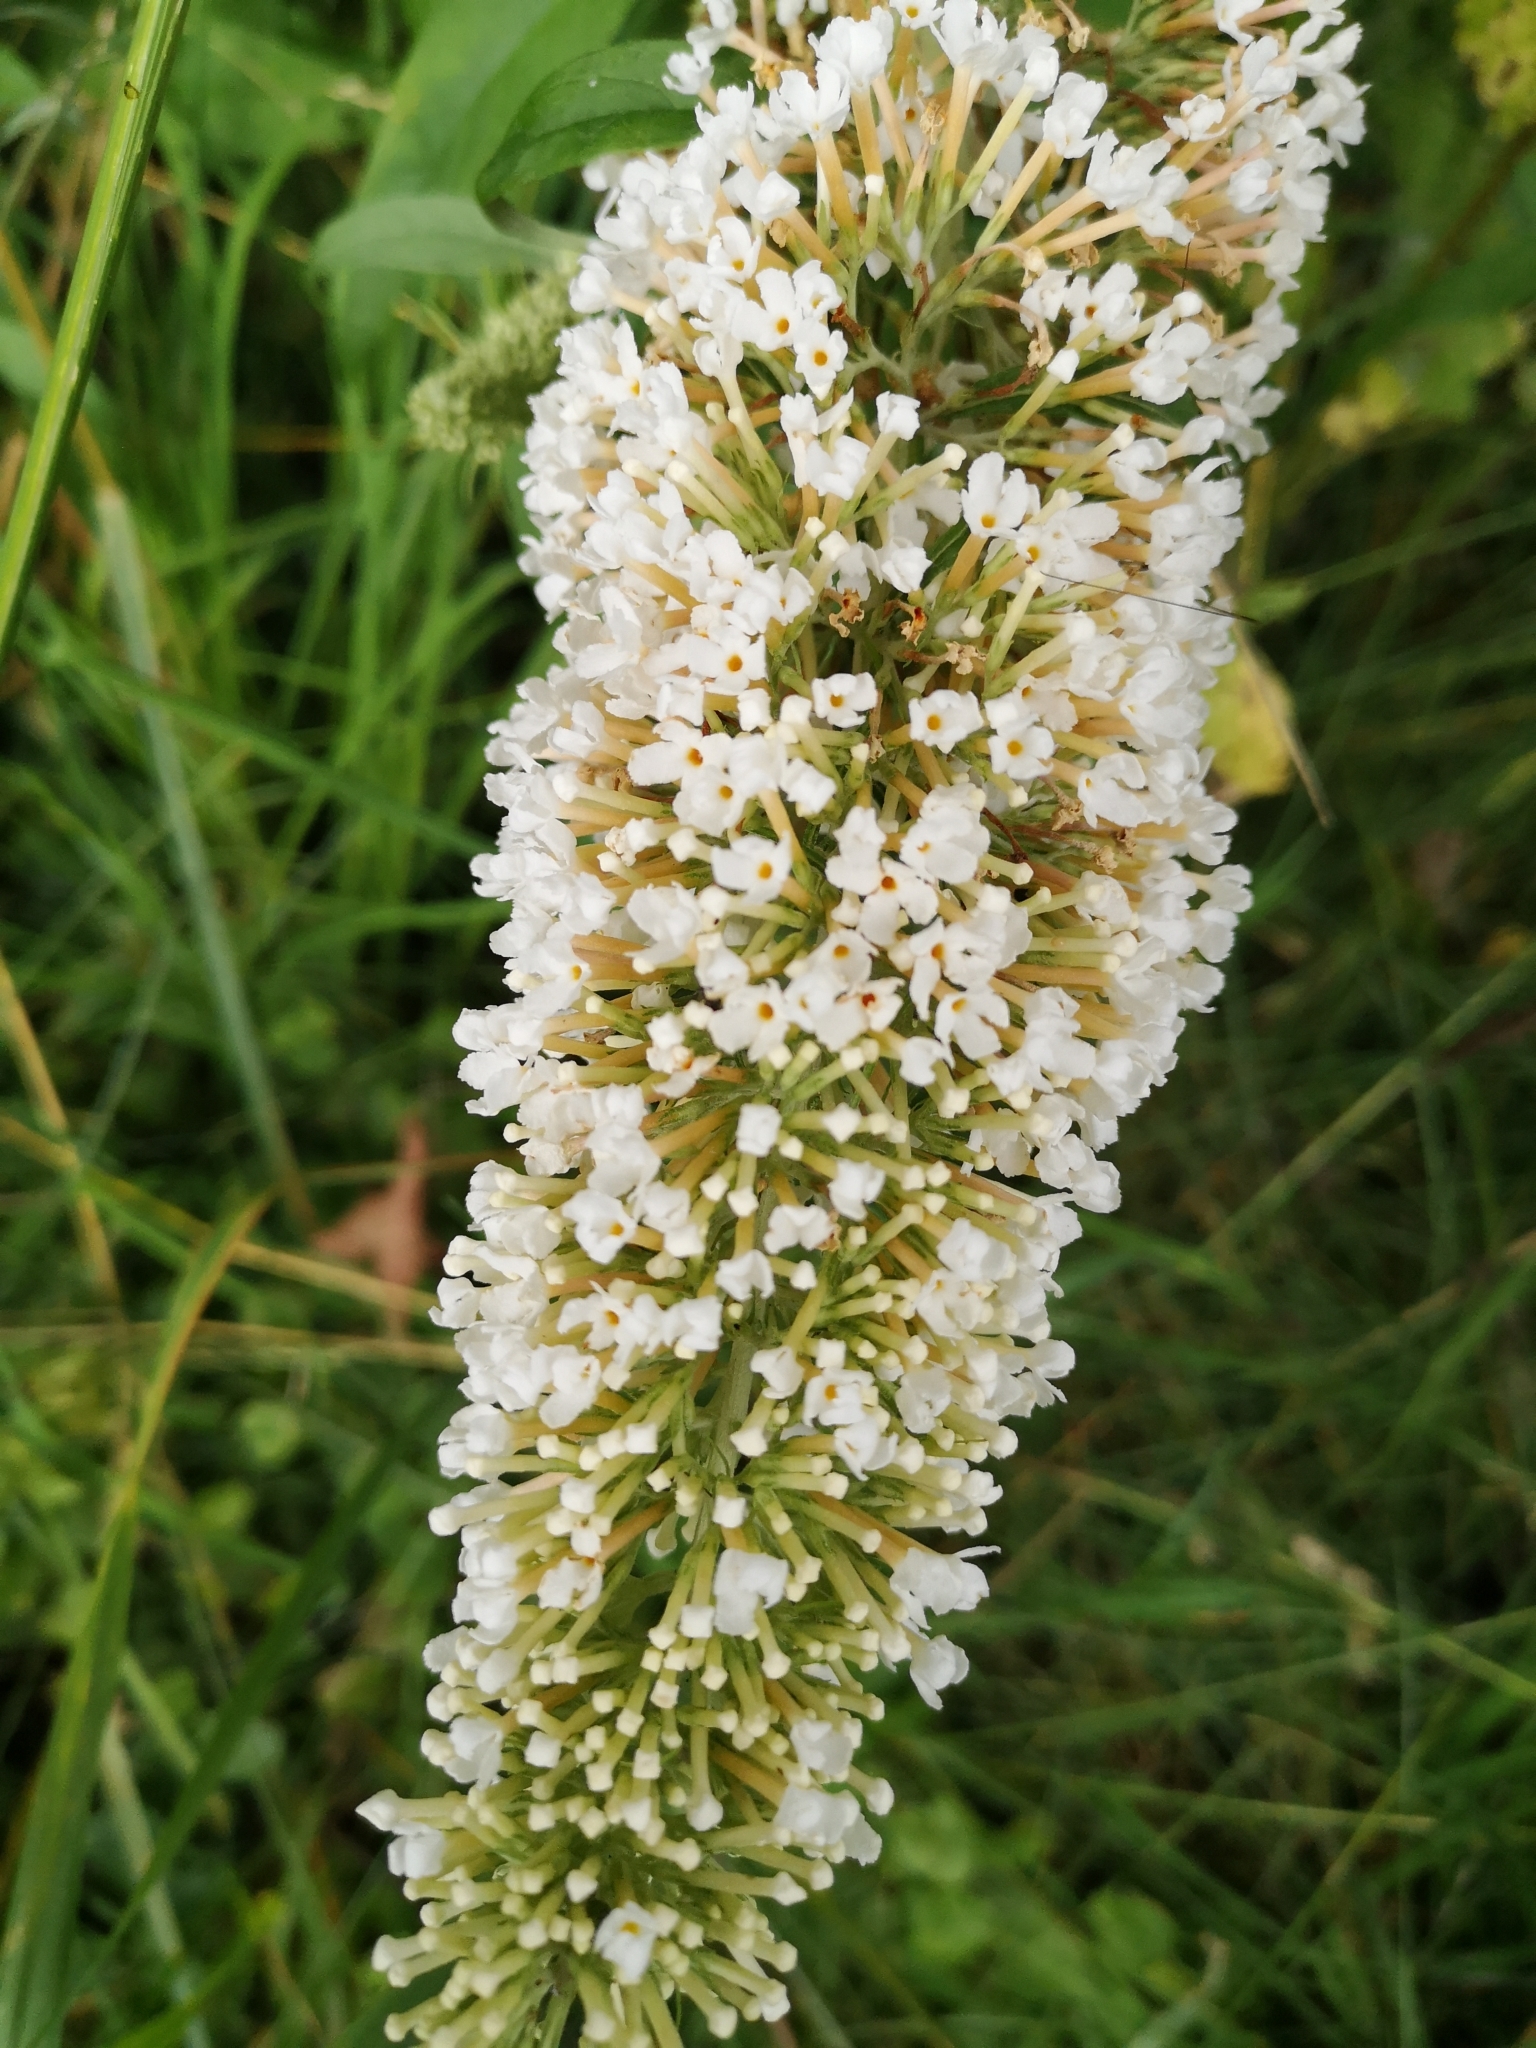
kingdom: Plantae
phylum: Tracheophyta
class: Magnoliopsida
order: Lamiales
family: Scrophulariaceae
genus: Buddleja
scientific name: Buddleja davidii
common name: Butterfly-bush
